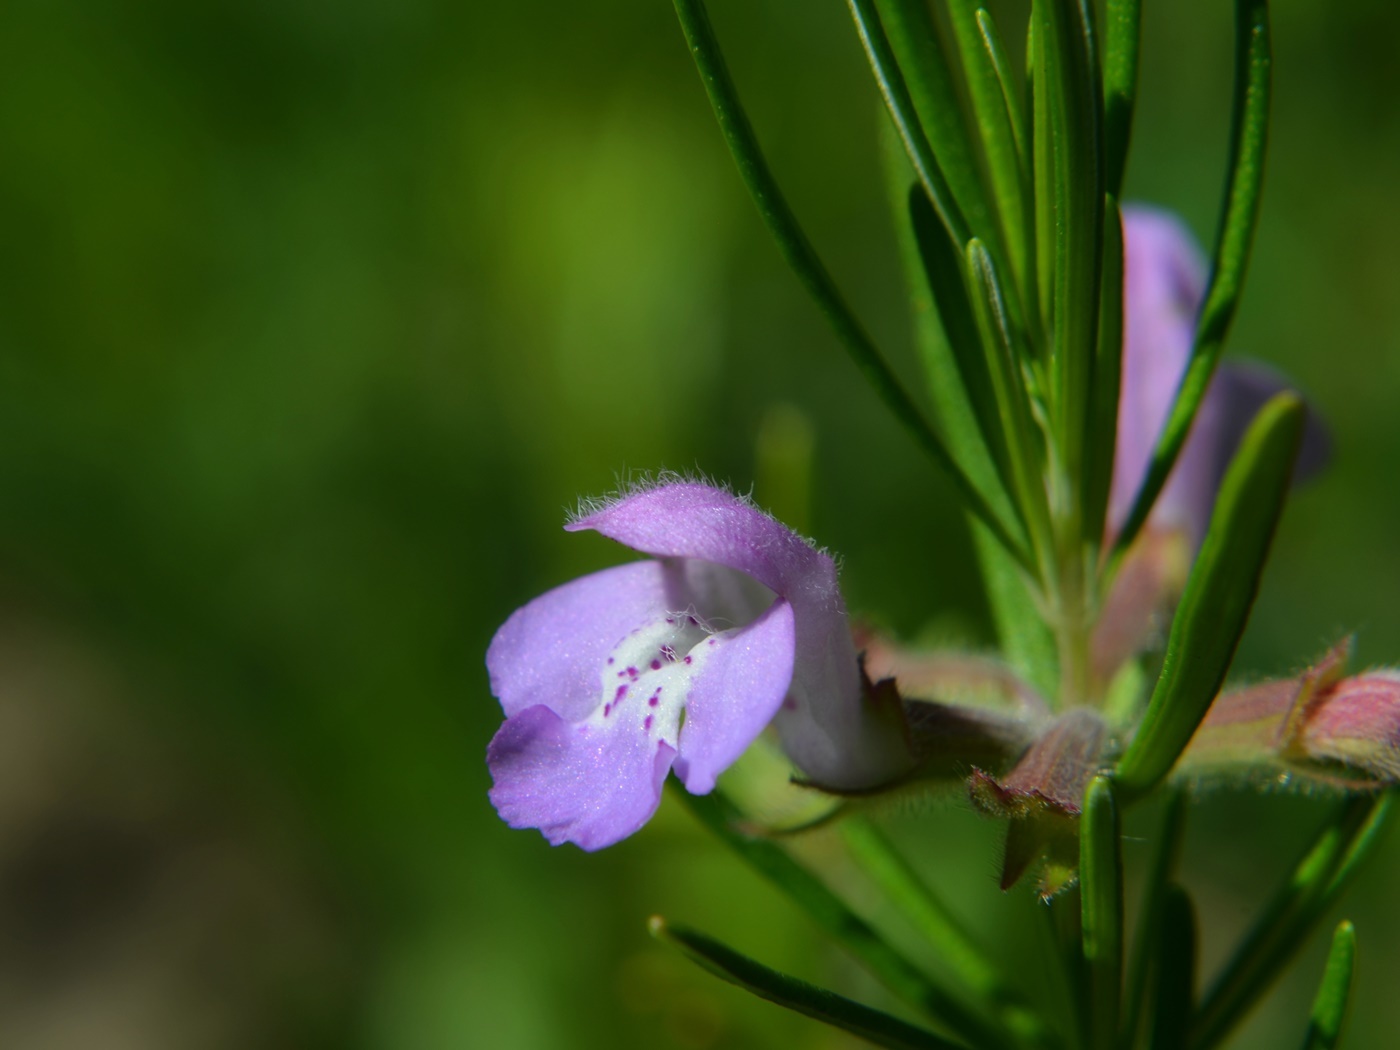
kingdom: Plantae
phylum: Tracheophyta
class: Magnoliopsida
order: Lamiales
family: Lamiaceae
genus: Conradina
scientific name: Conradina verticillata
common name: Cumberland-rosemary
